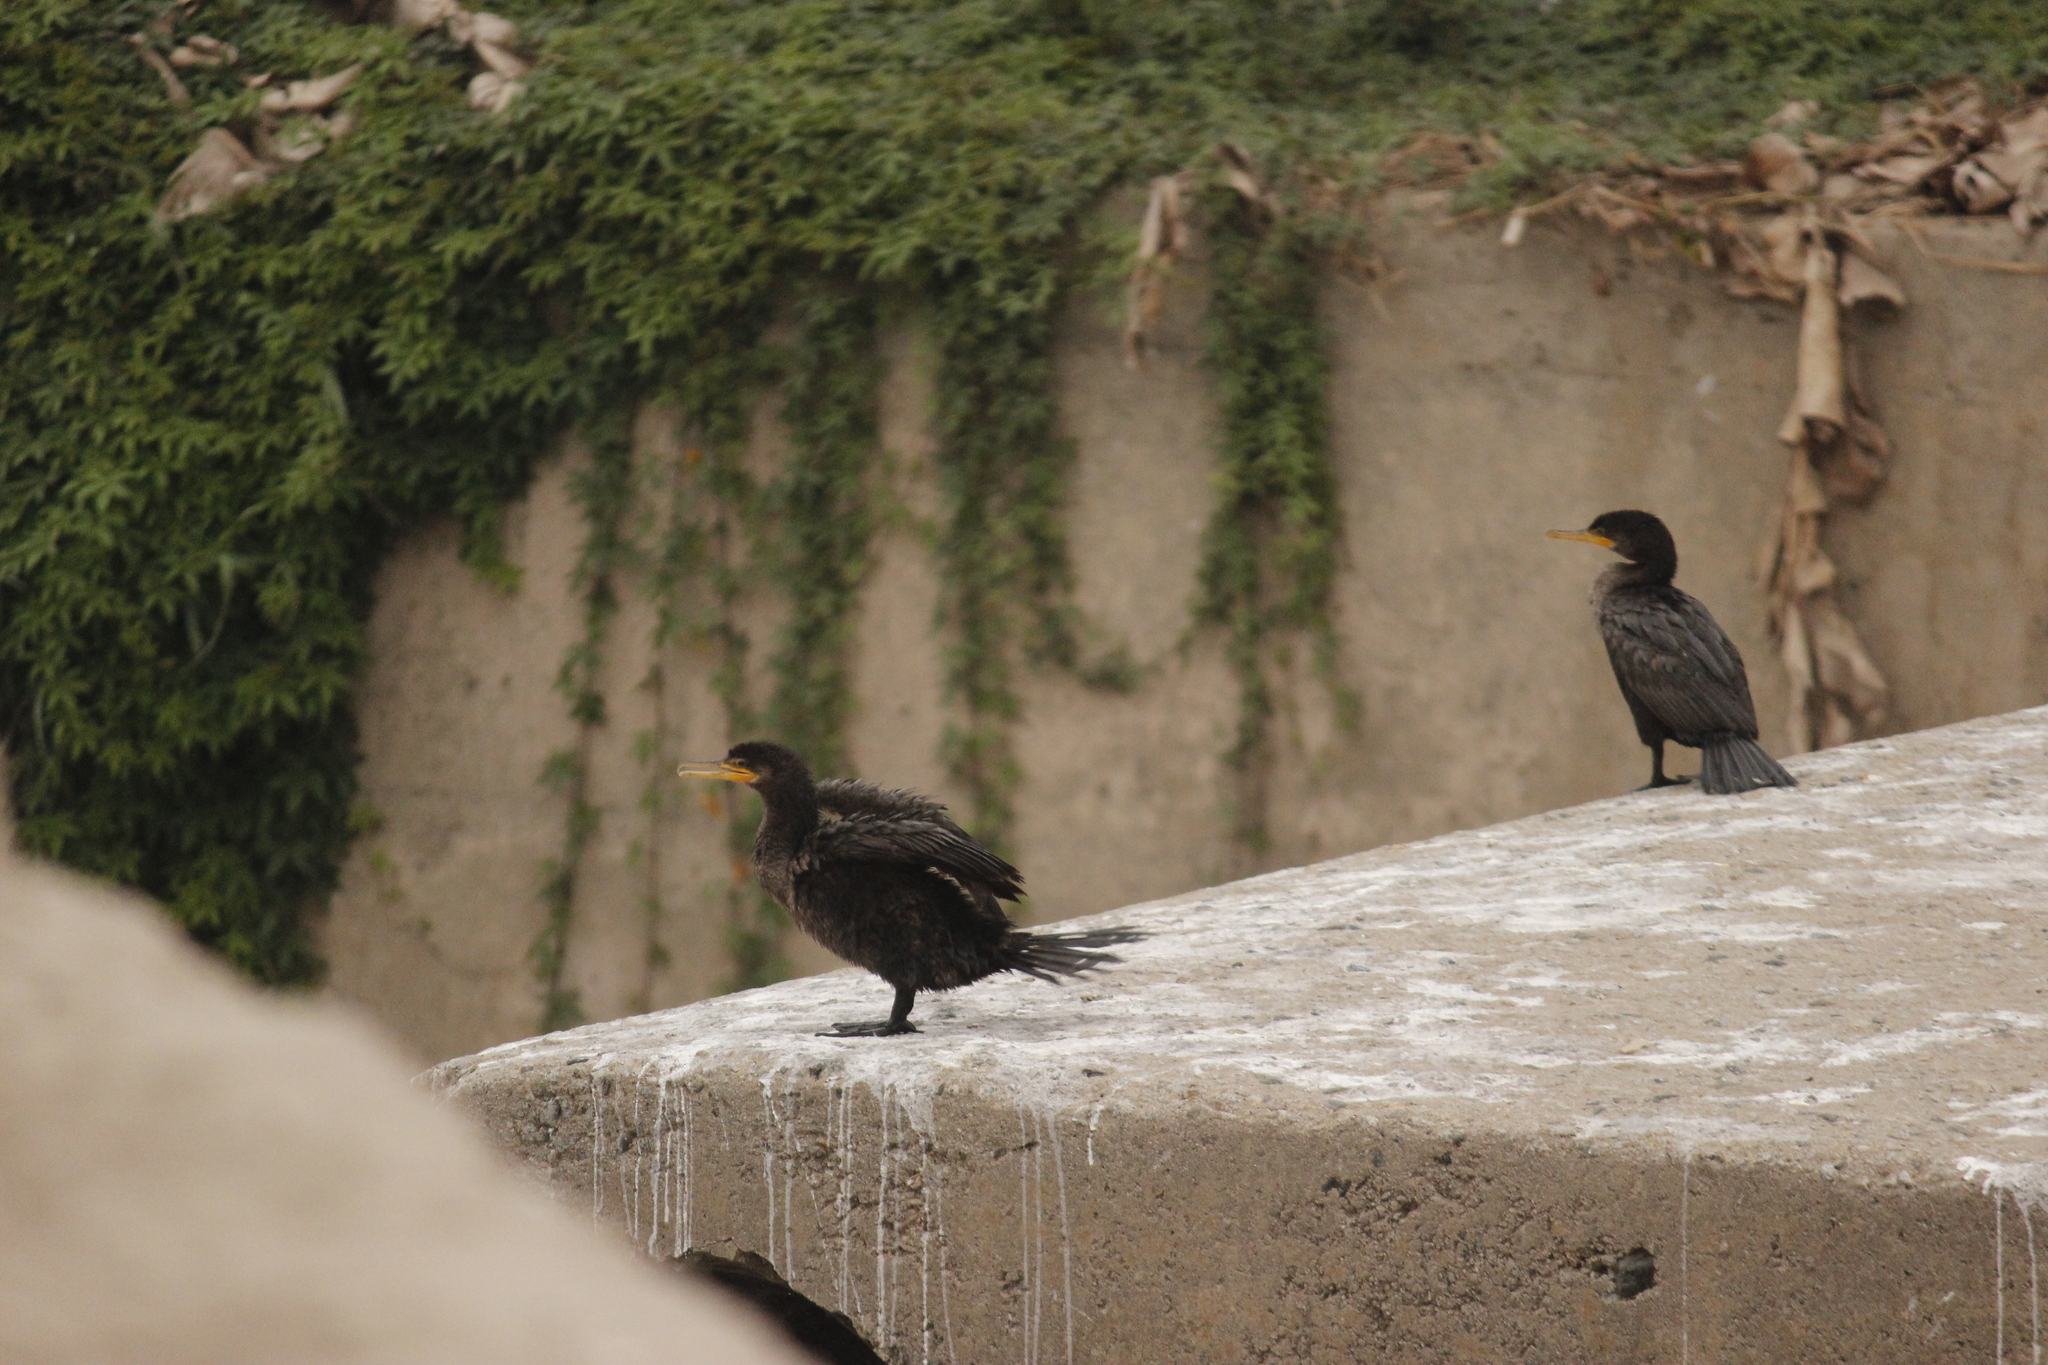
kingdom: Animalia
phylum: Chordata
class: Aves
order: Suliformes
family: Phalacrocoracidae
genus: Phalacrocorax
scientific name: Phalacrocorax brasilianus
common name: Neotropic cormorant
